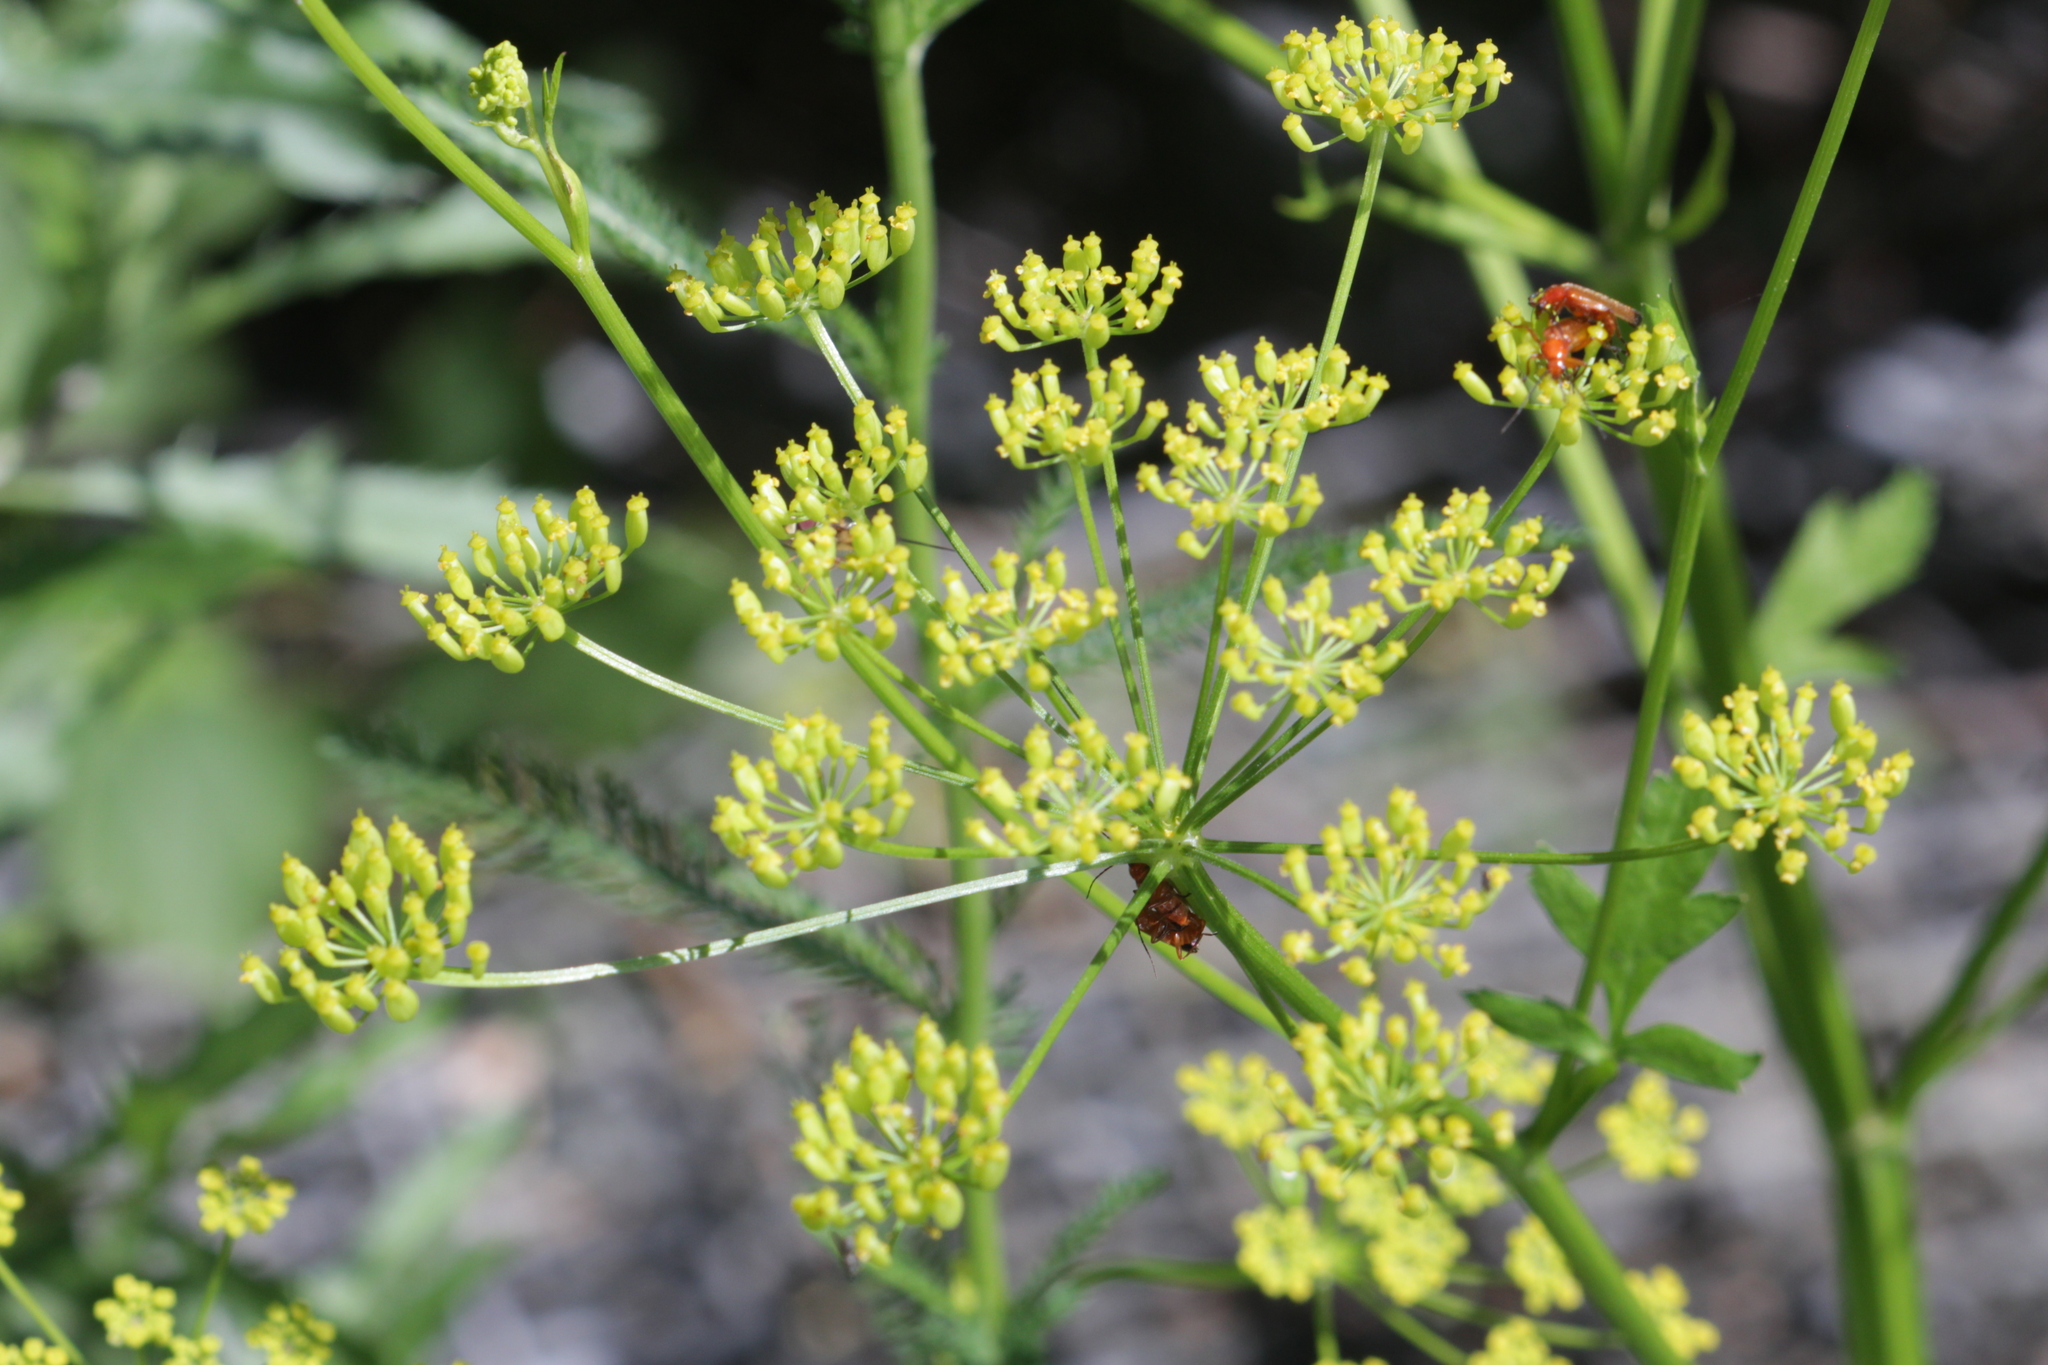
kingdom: Plantae
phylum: Tracheophyta
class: Magnoliopsida
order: Apiales
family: Apiaceae
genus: Pastinaca
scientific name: Pastinaca sativa
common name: Wild parsnip
